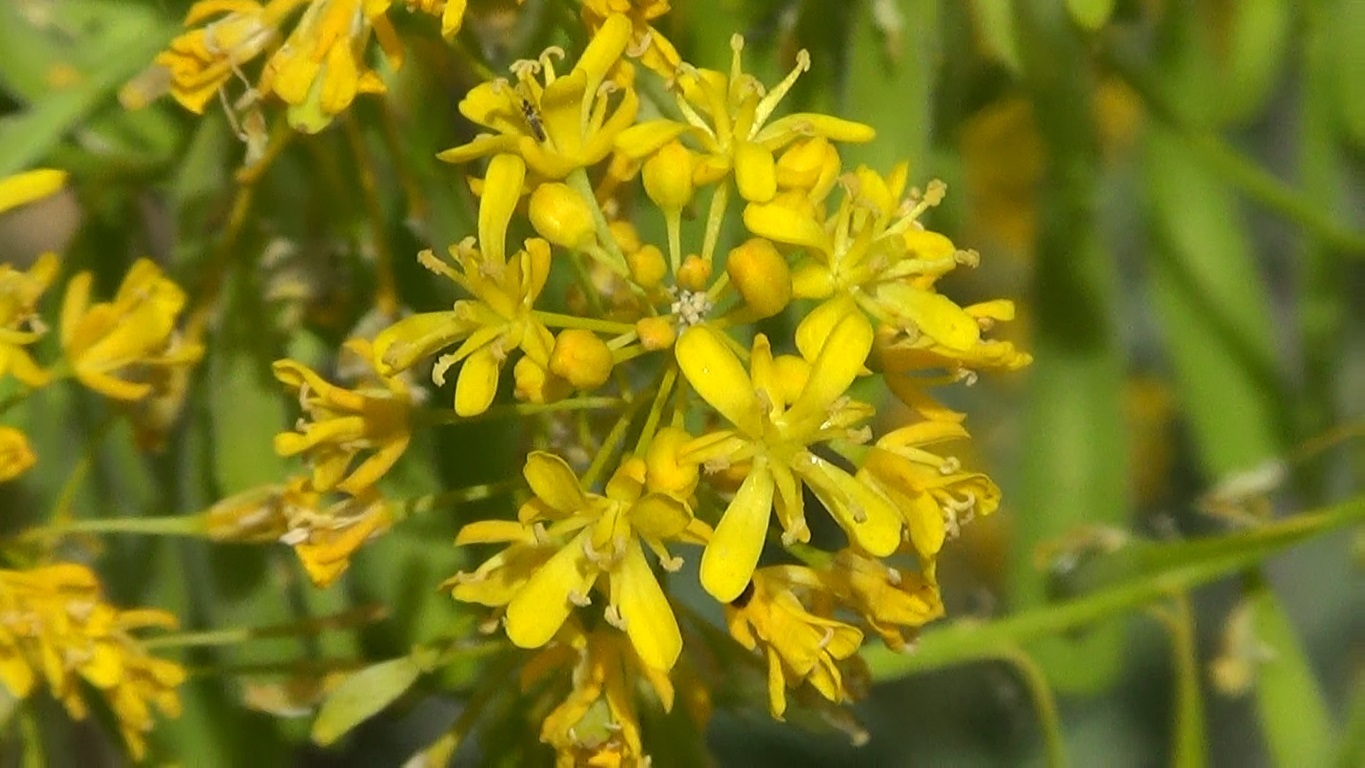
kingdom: Plantae
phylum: Tracheophyta
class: Magnoliopsida
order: Brassicales
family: Brassicaceae
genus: Isatis
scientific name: Isatis tinctoria
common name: Woad
